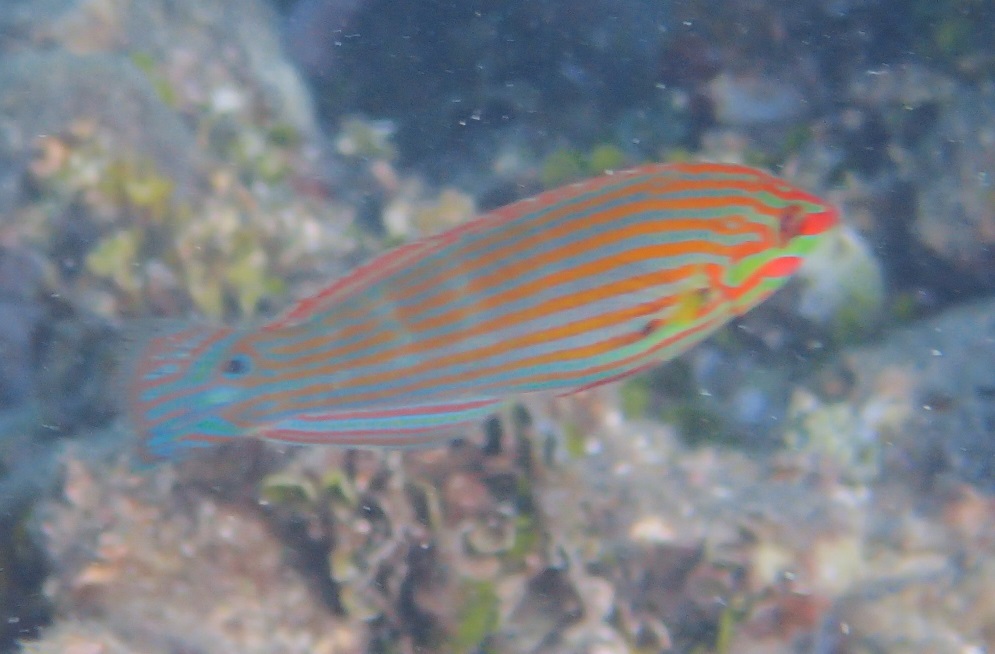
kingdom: Animalia
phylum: Chordata
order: Perciformes
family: Labridae
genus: Halichoeres
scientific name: Halichoeres melanurus
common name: Hoeven's wrasse
